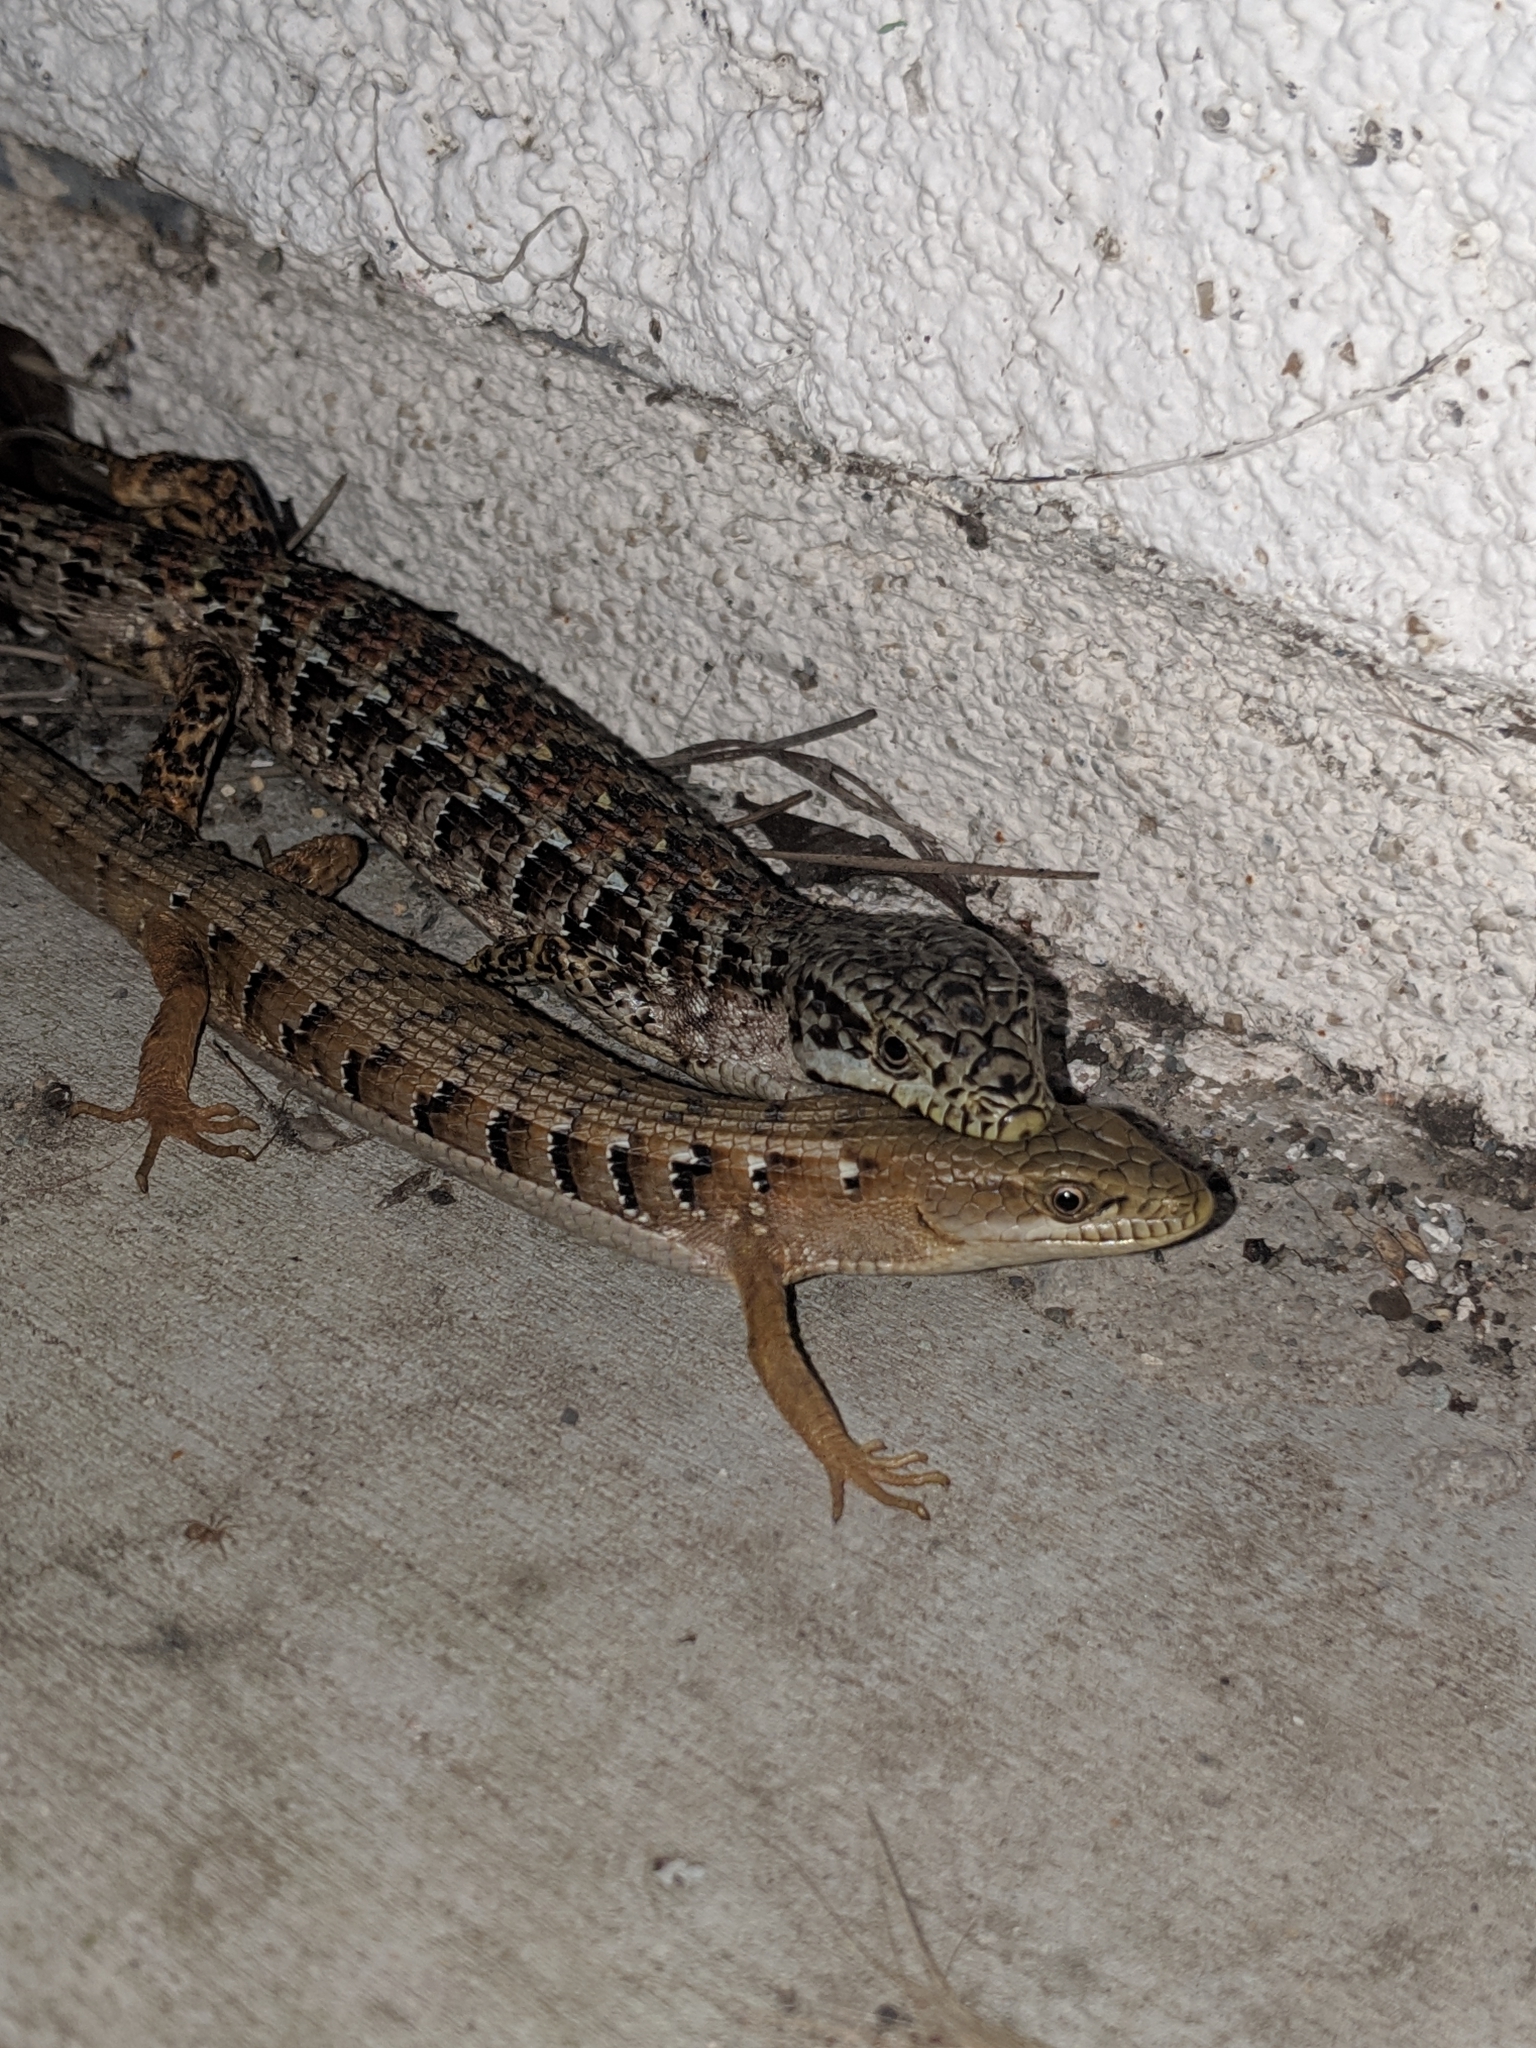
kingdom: Animalia
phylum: Chordata
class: Squamata
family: Anguidae
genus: Elgaria
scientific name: Elgaria multicarinata
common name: Southern alligator lizard
